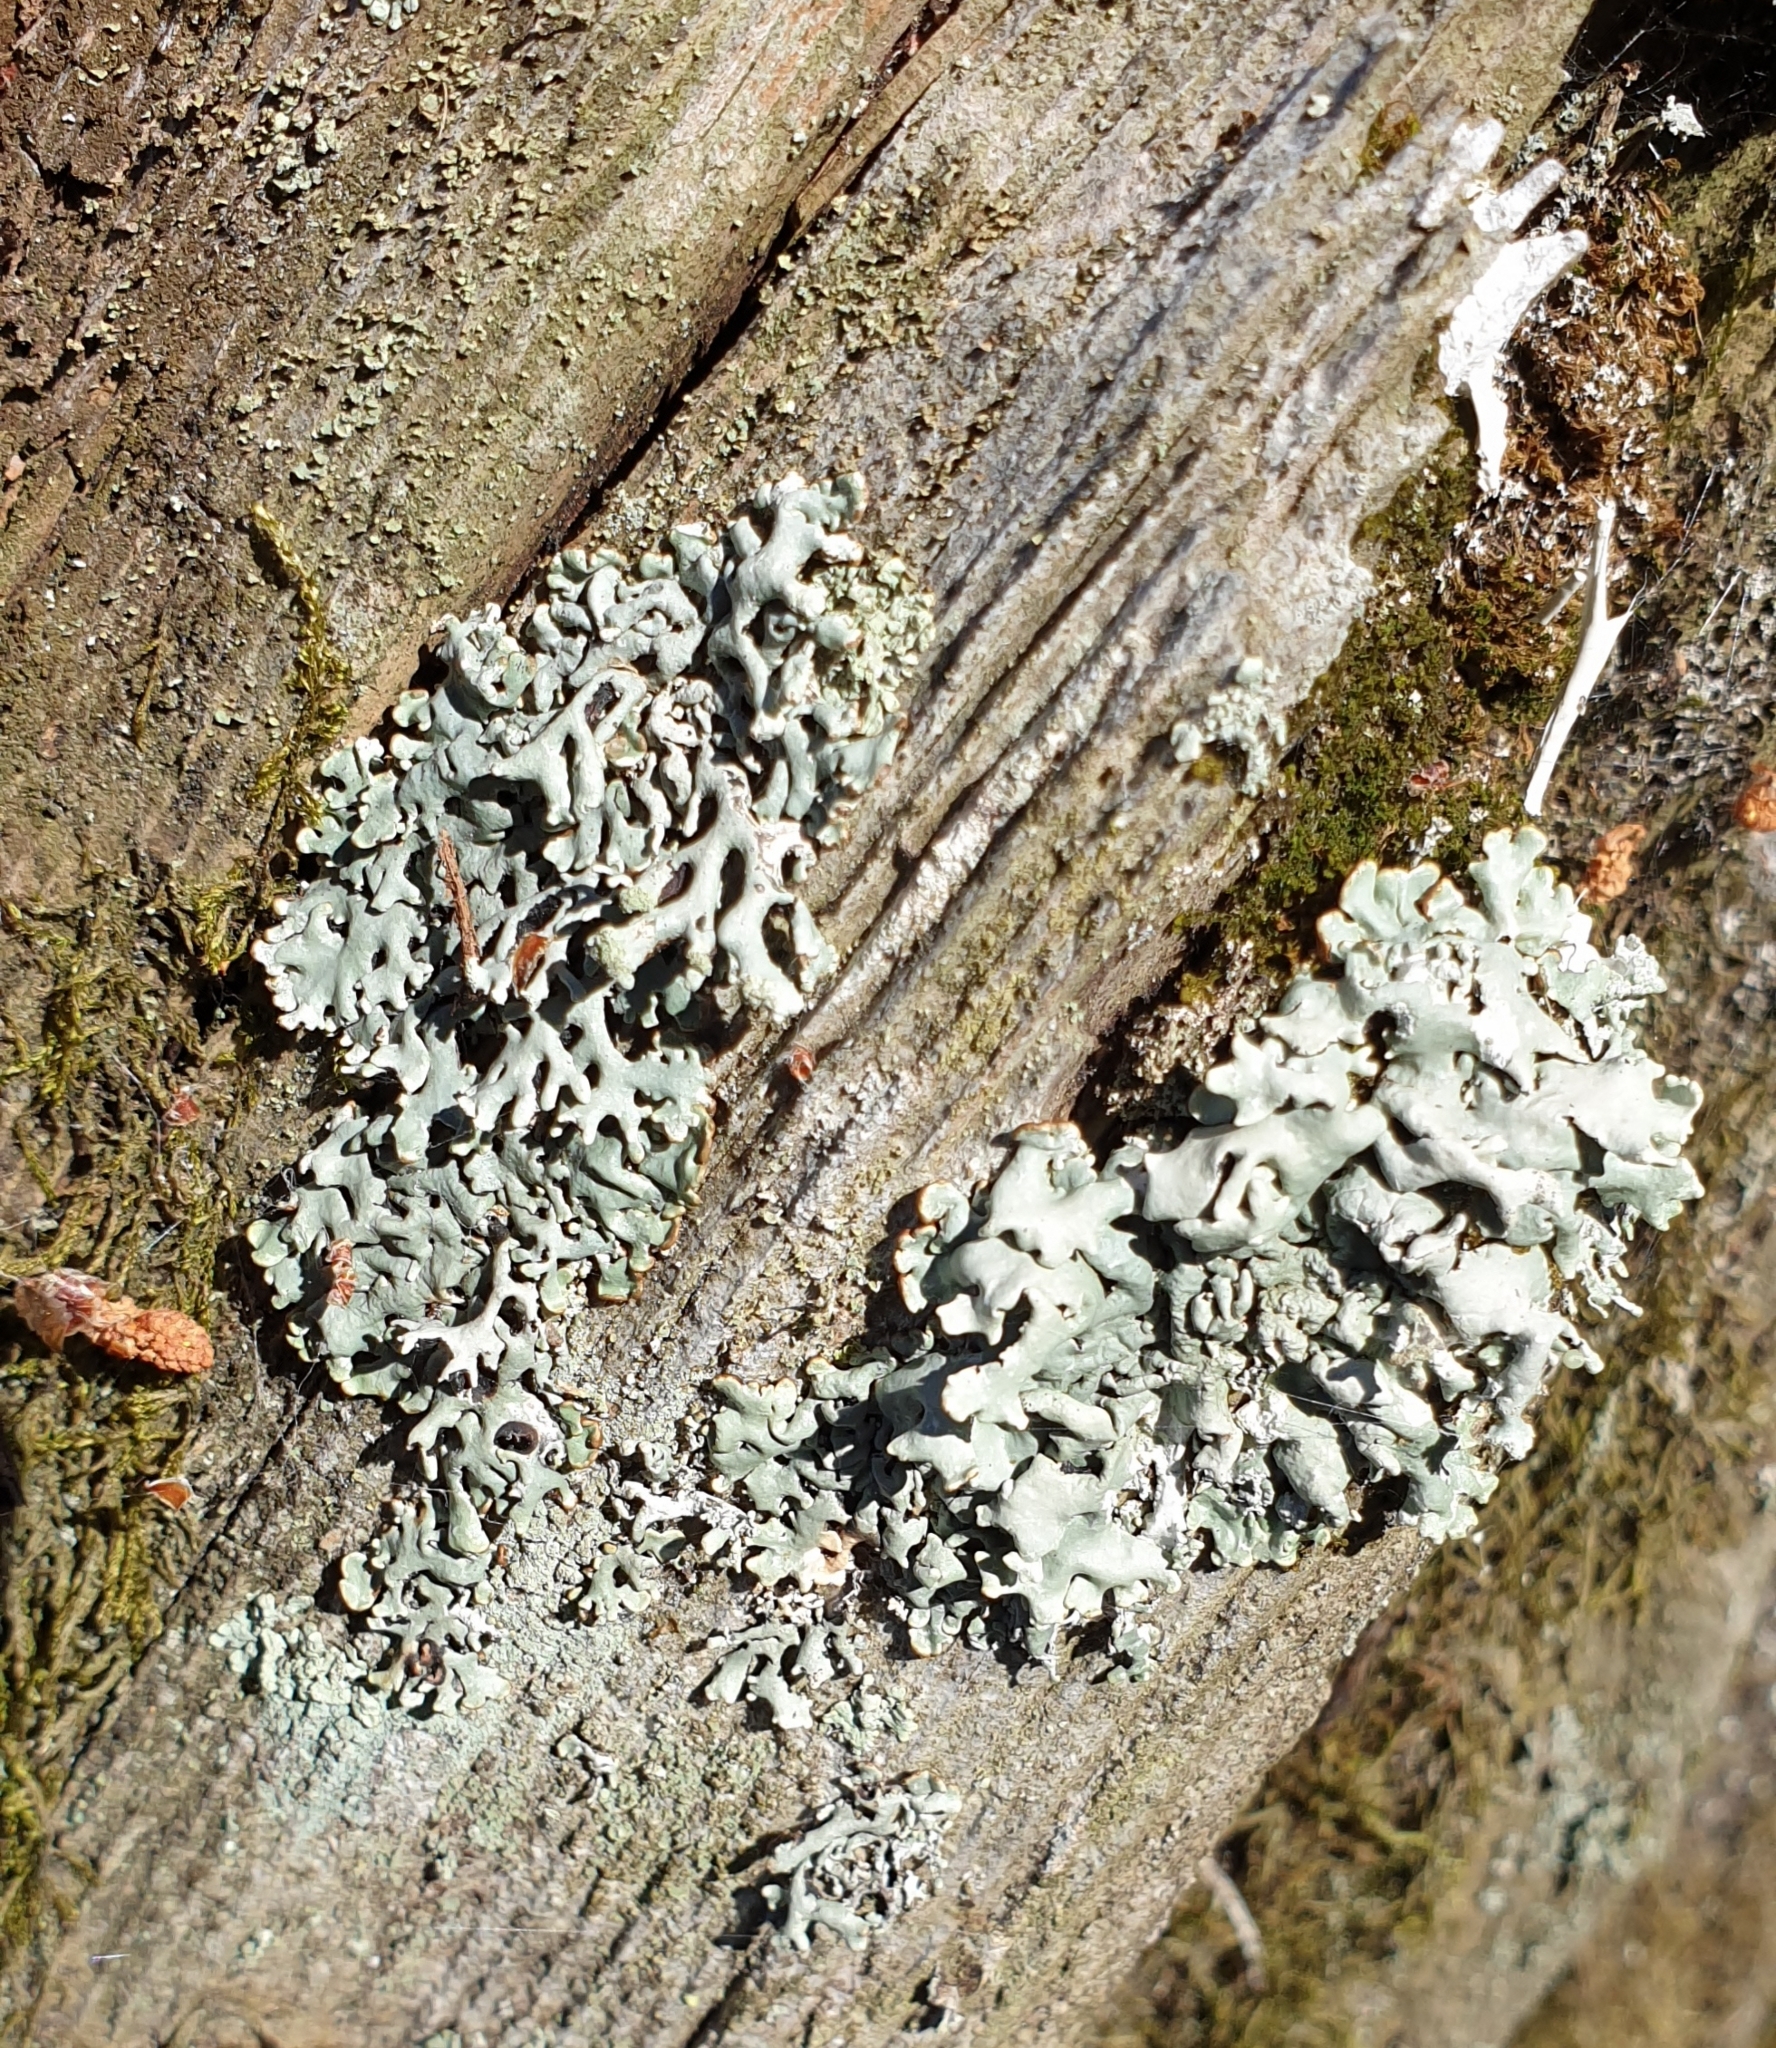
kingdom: Fungi
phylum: Ascomycota
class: Lecanoromycetes
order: Lecanorales
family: Parmeliaceae
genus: Hypogymnia
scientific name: Hypogymnia physodes
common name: Dark crottle
